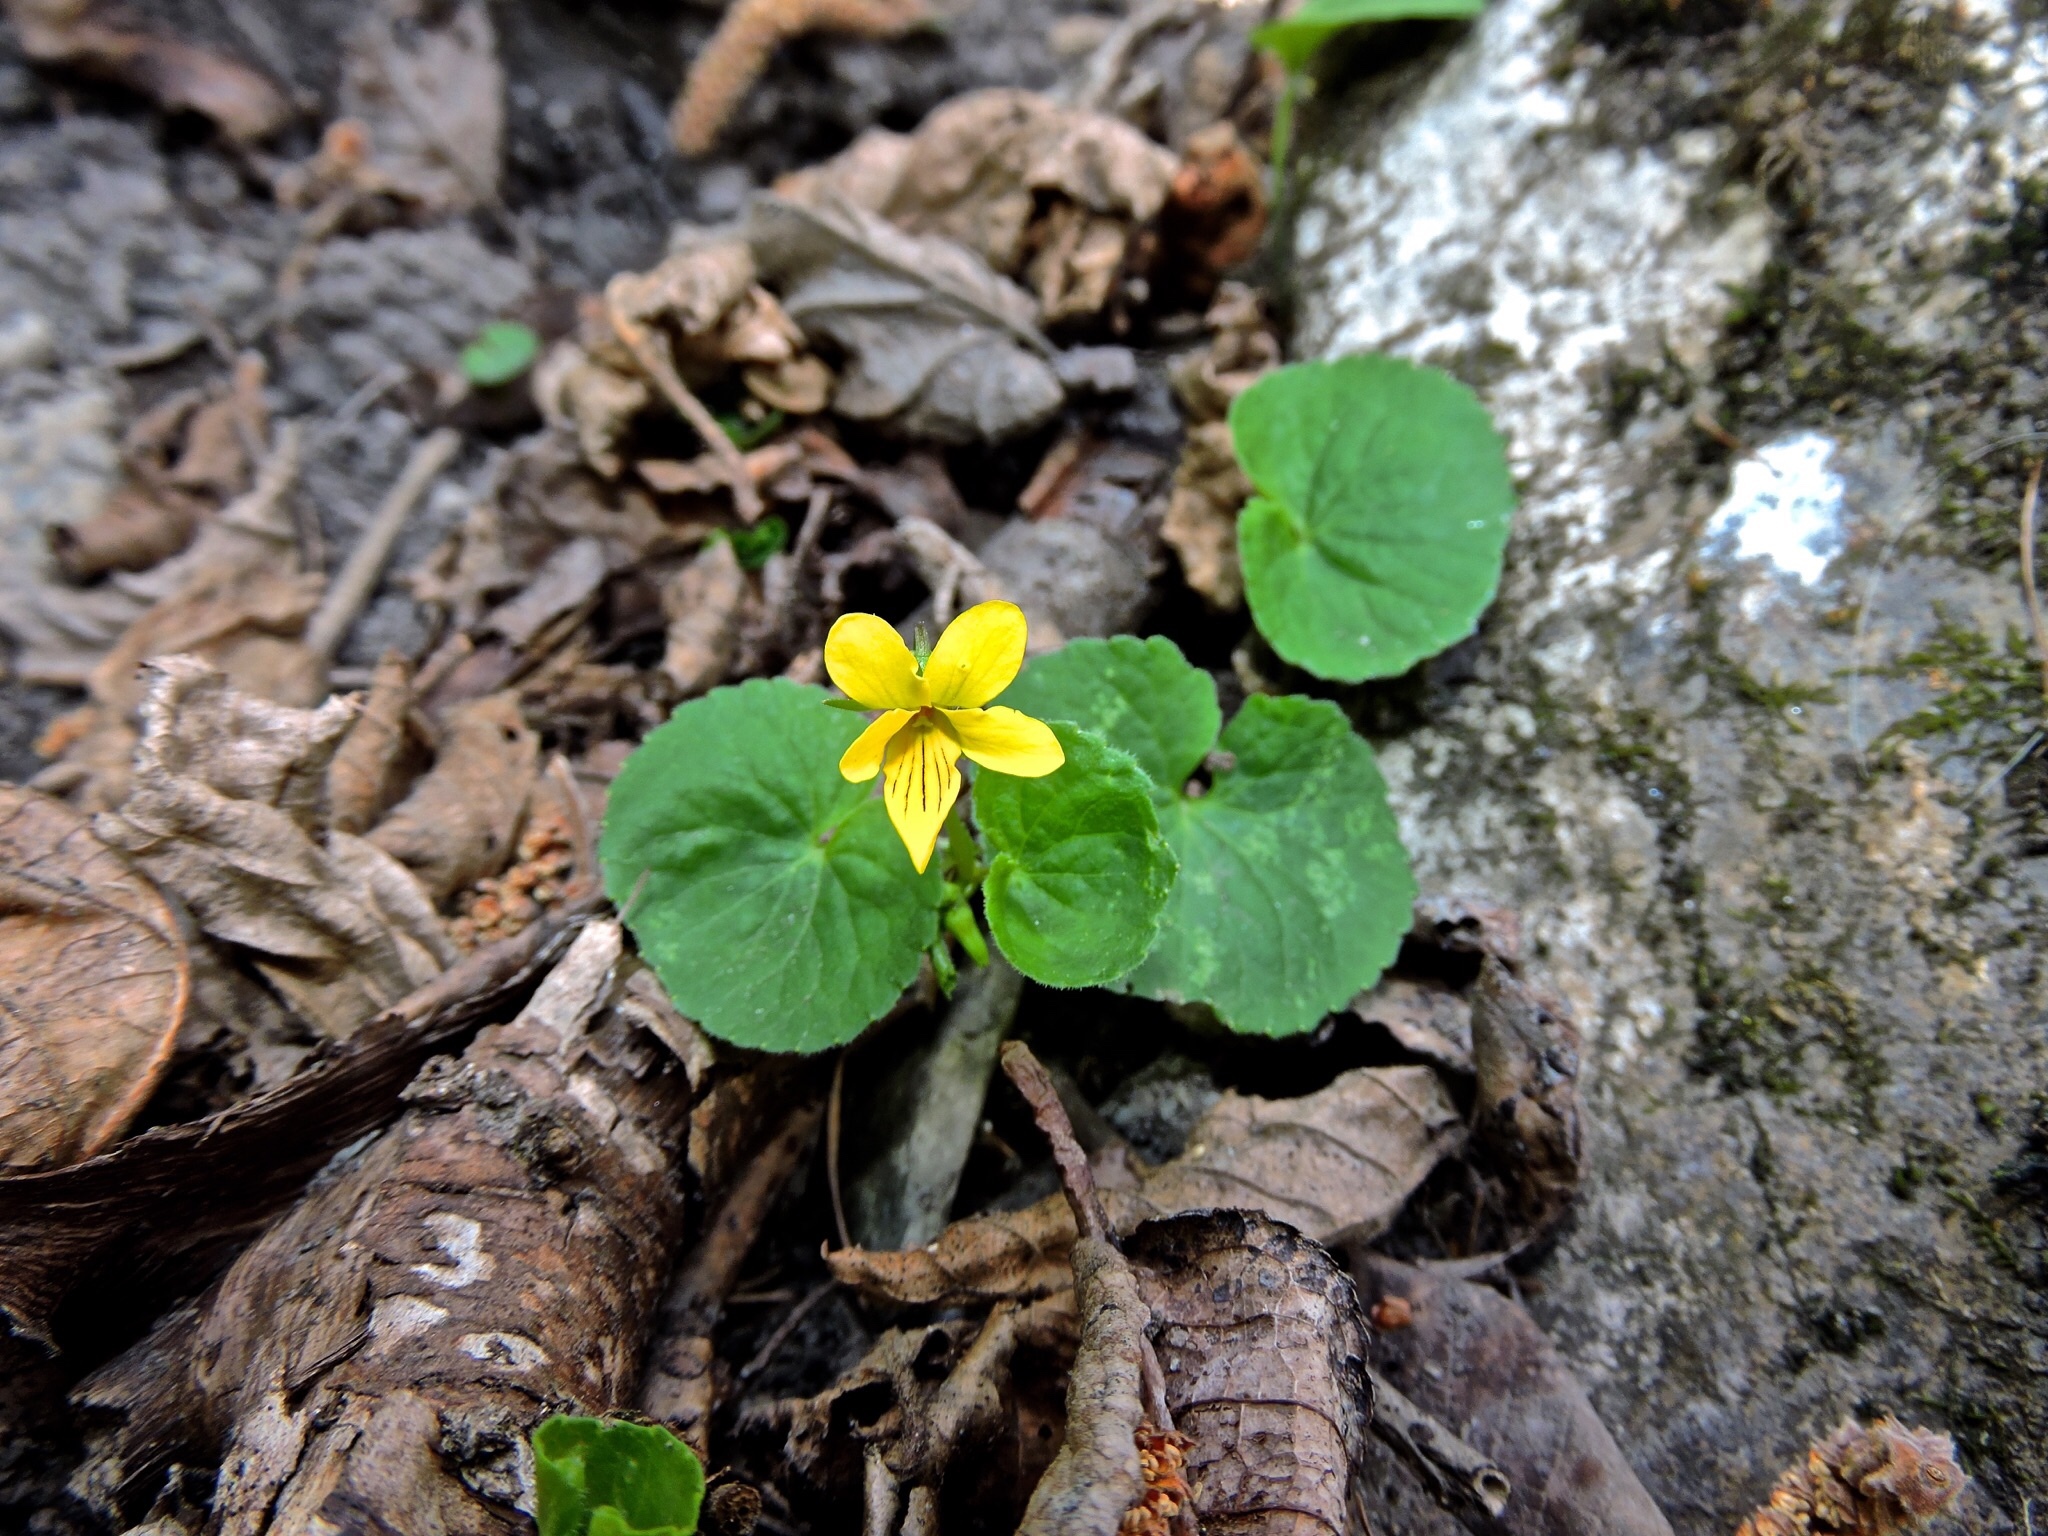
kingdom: Plantae
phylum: Tracheophyta
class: Magnoliopsida
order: Malpighiales
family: Violaceae
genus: Viola
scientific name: Viola biflora
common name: Alpine yellow violet
